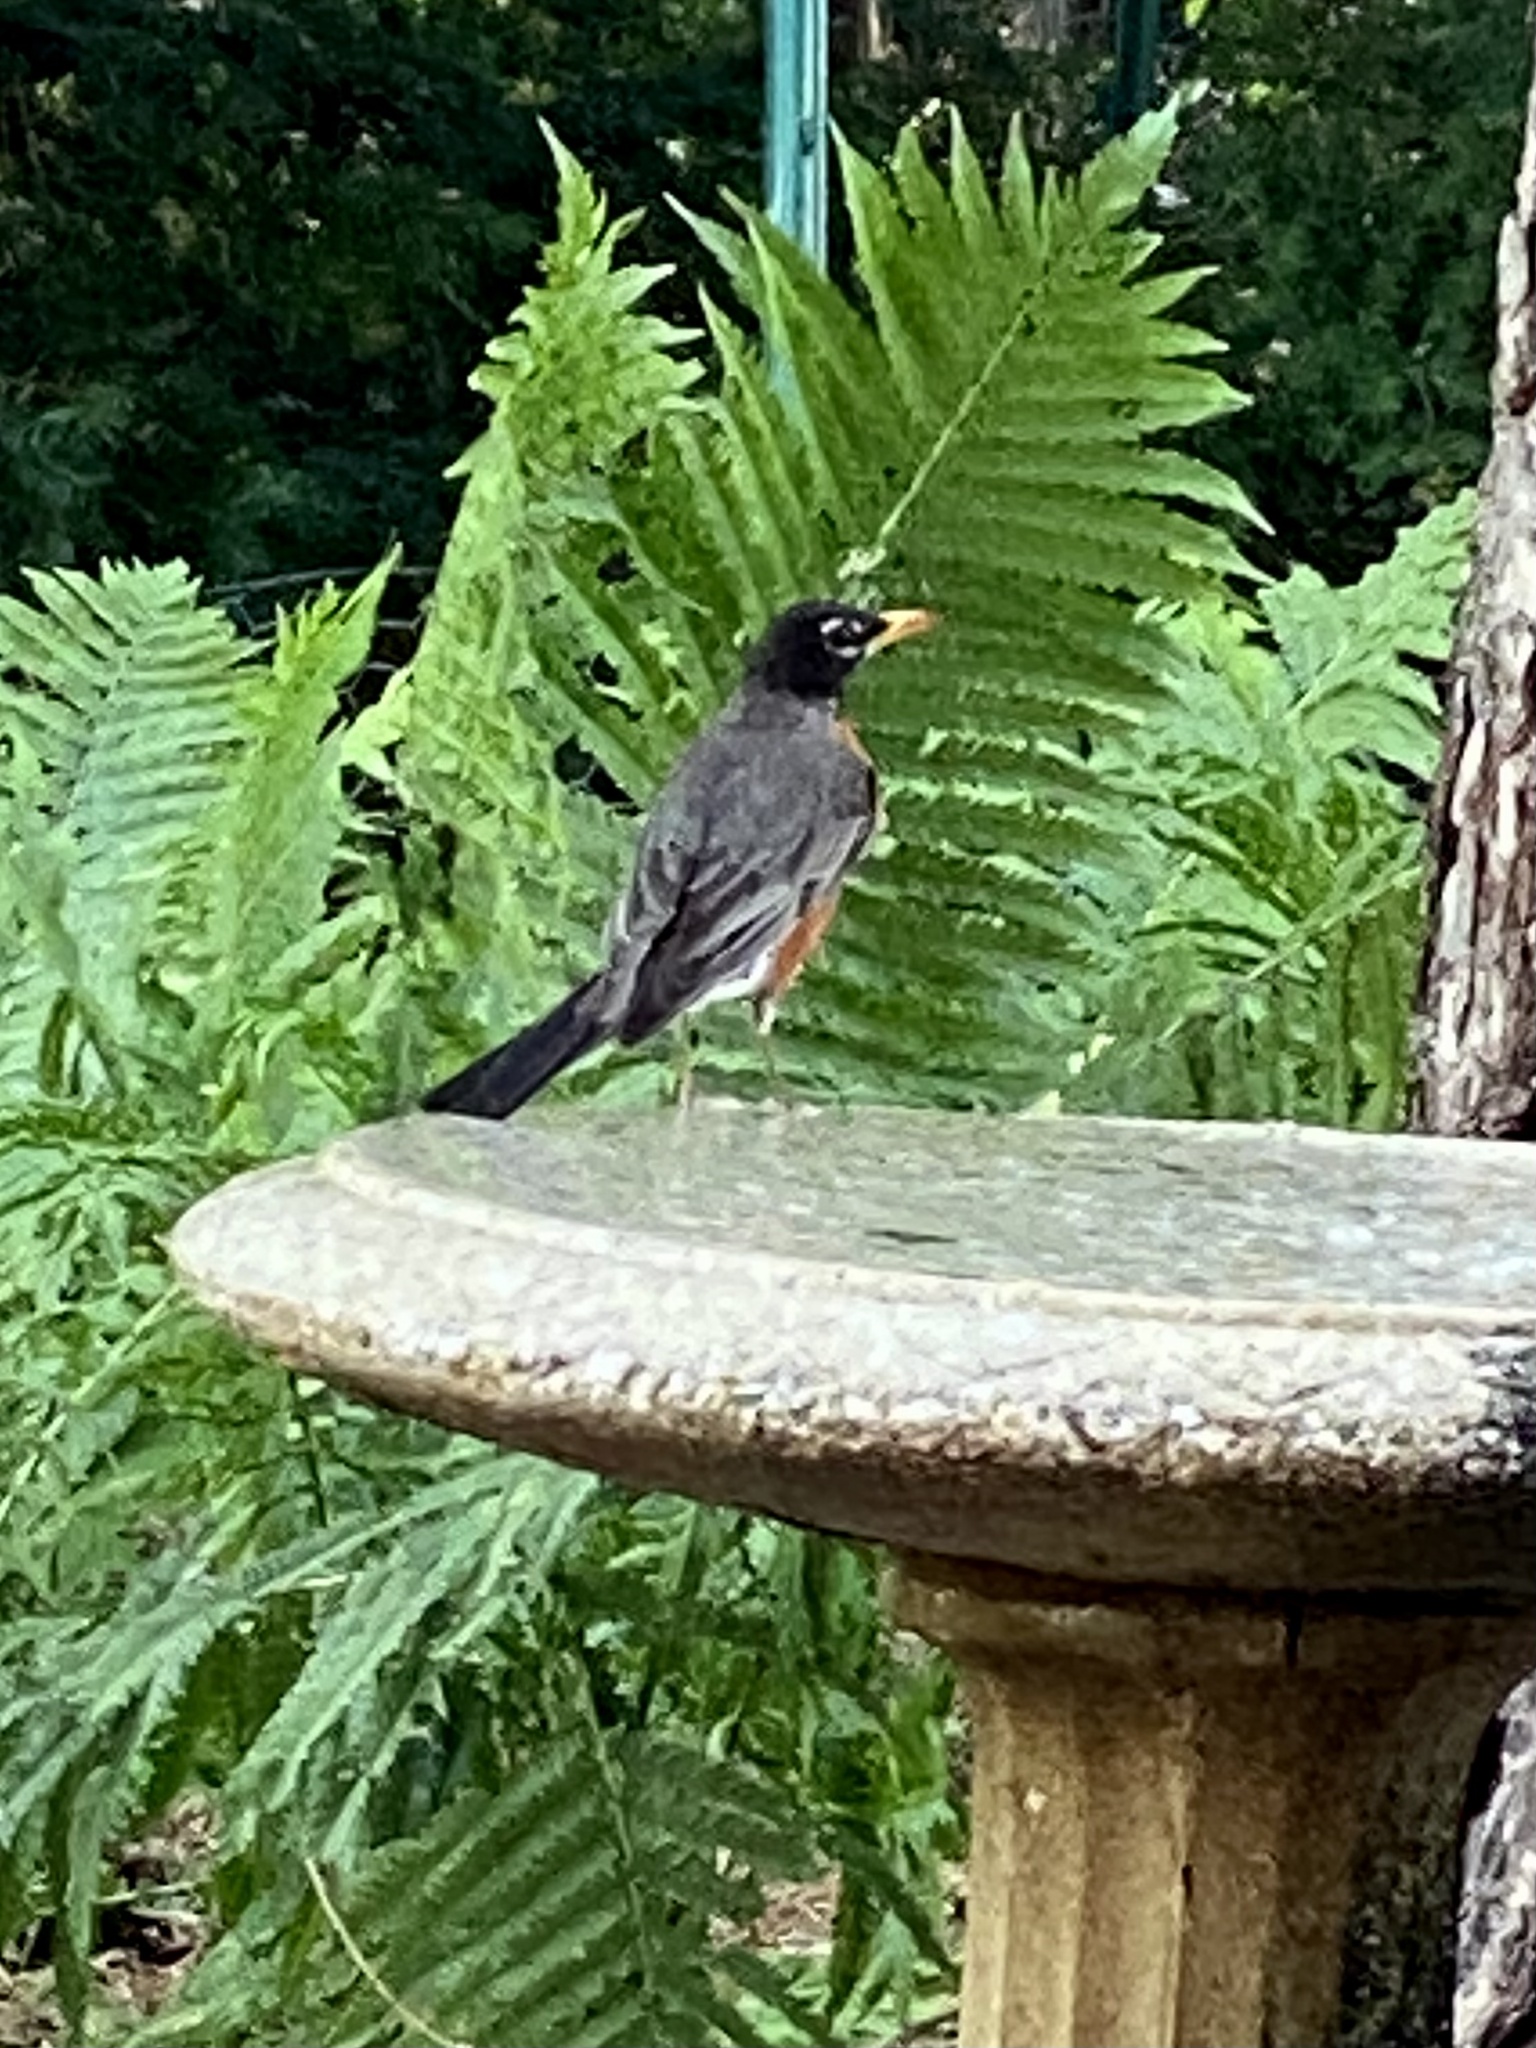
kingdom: Animalia
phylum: Chordata
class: Aves
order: Passeriformes
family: Turdidae
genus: Turdus
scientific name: Turdus migratorius
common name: American robin
